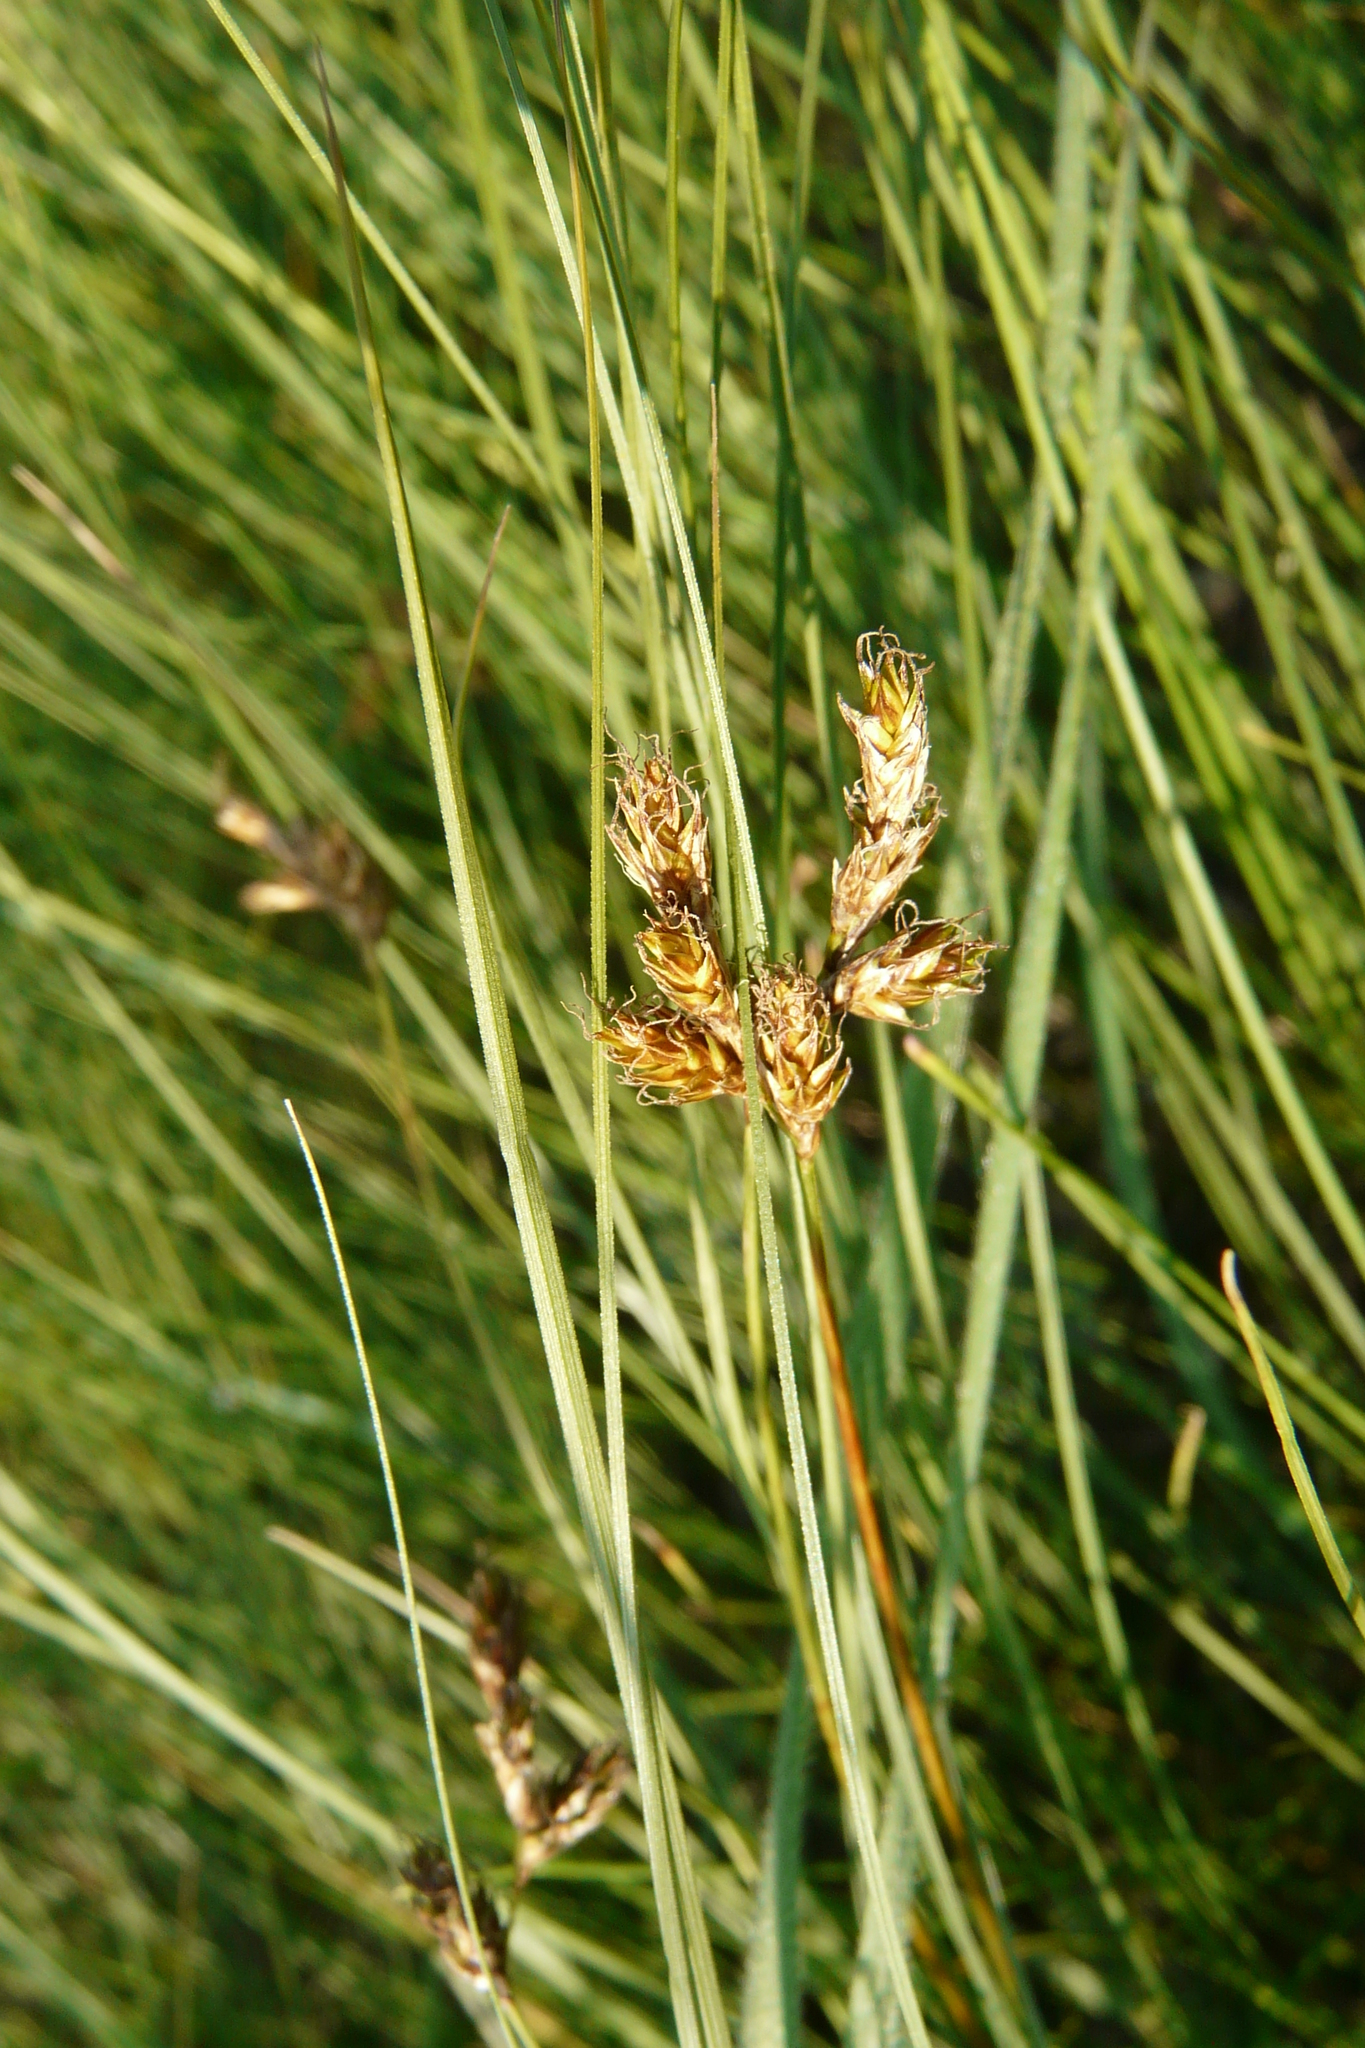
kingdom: Plantae
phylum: Tracheophyta
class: Liliopsida
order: Poales
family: Cyperaceae
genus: Carex
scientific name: Carex praecox
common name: Early sedge
